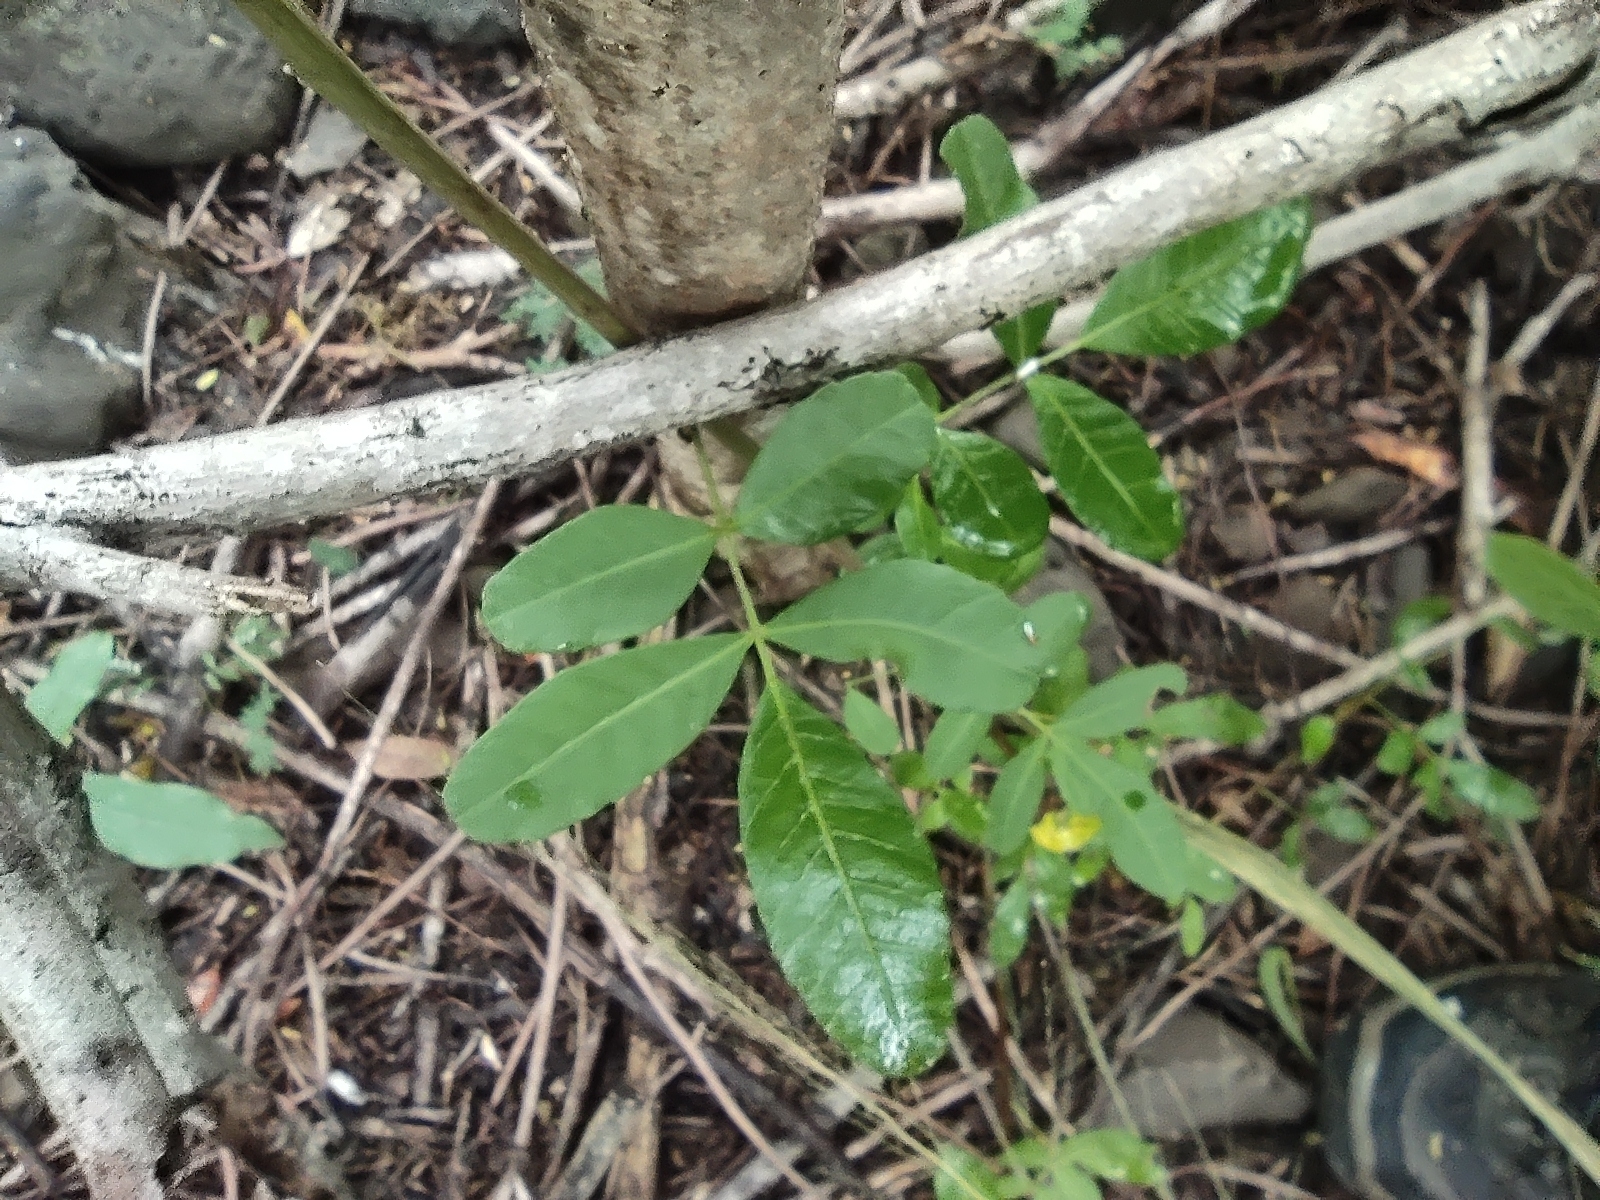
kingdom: Plantae
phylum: Tracheophyta
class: Magnoliopsida
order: Sapindales
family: Anacardiaceae
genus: Schinus
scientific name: Schinus terebinthifolia
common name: Brazilian peppertree
